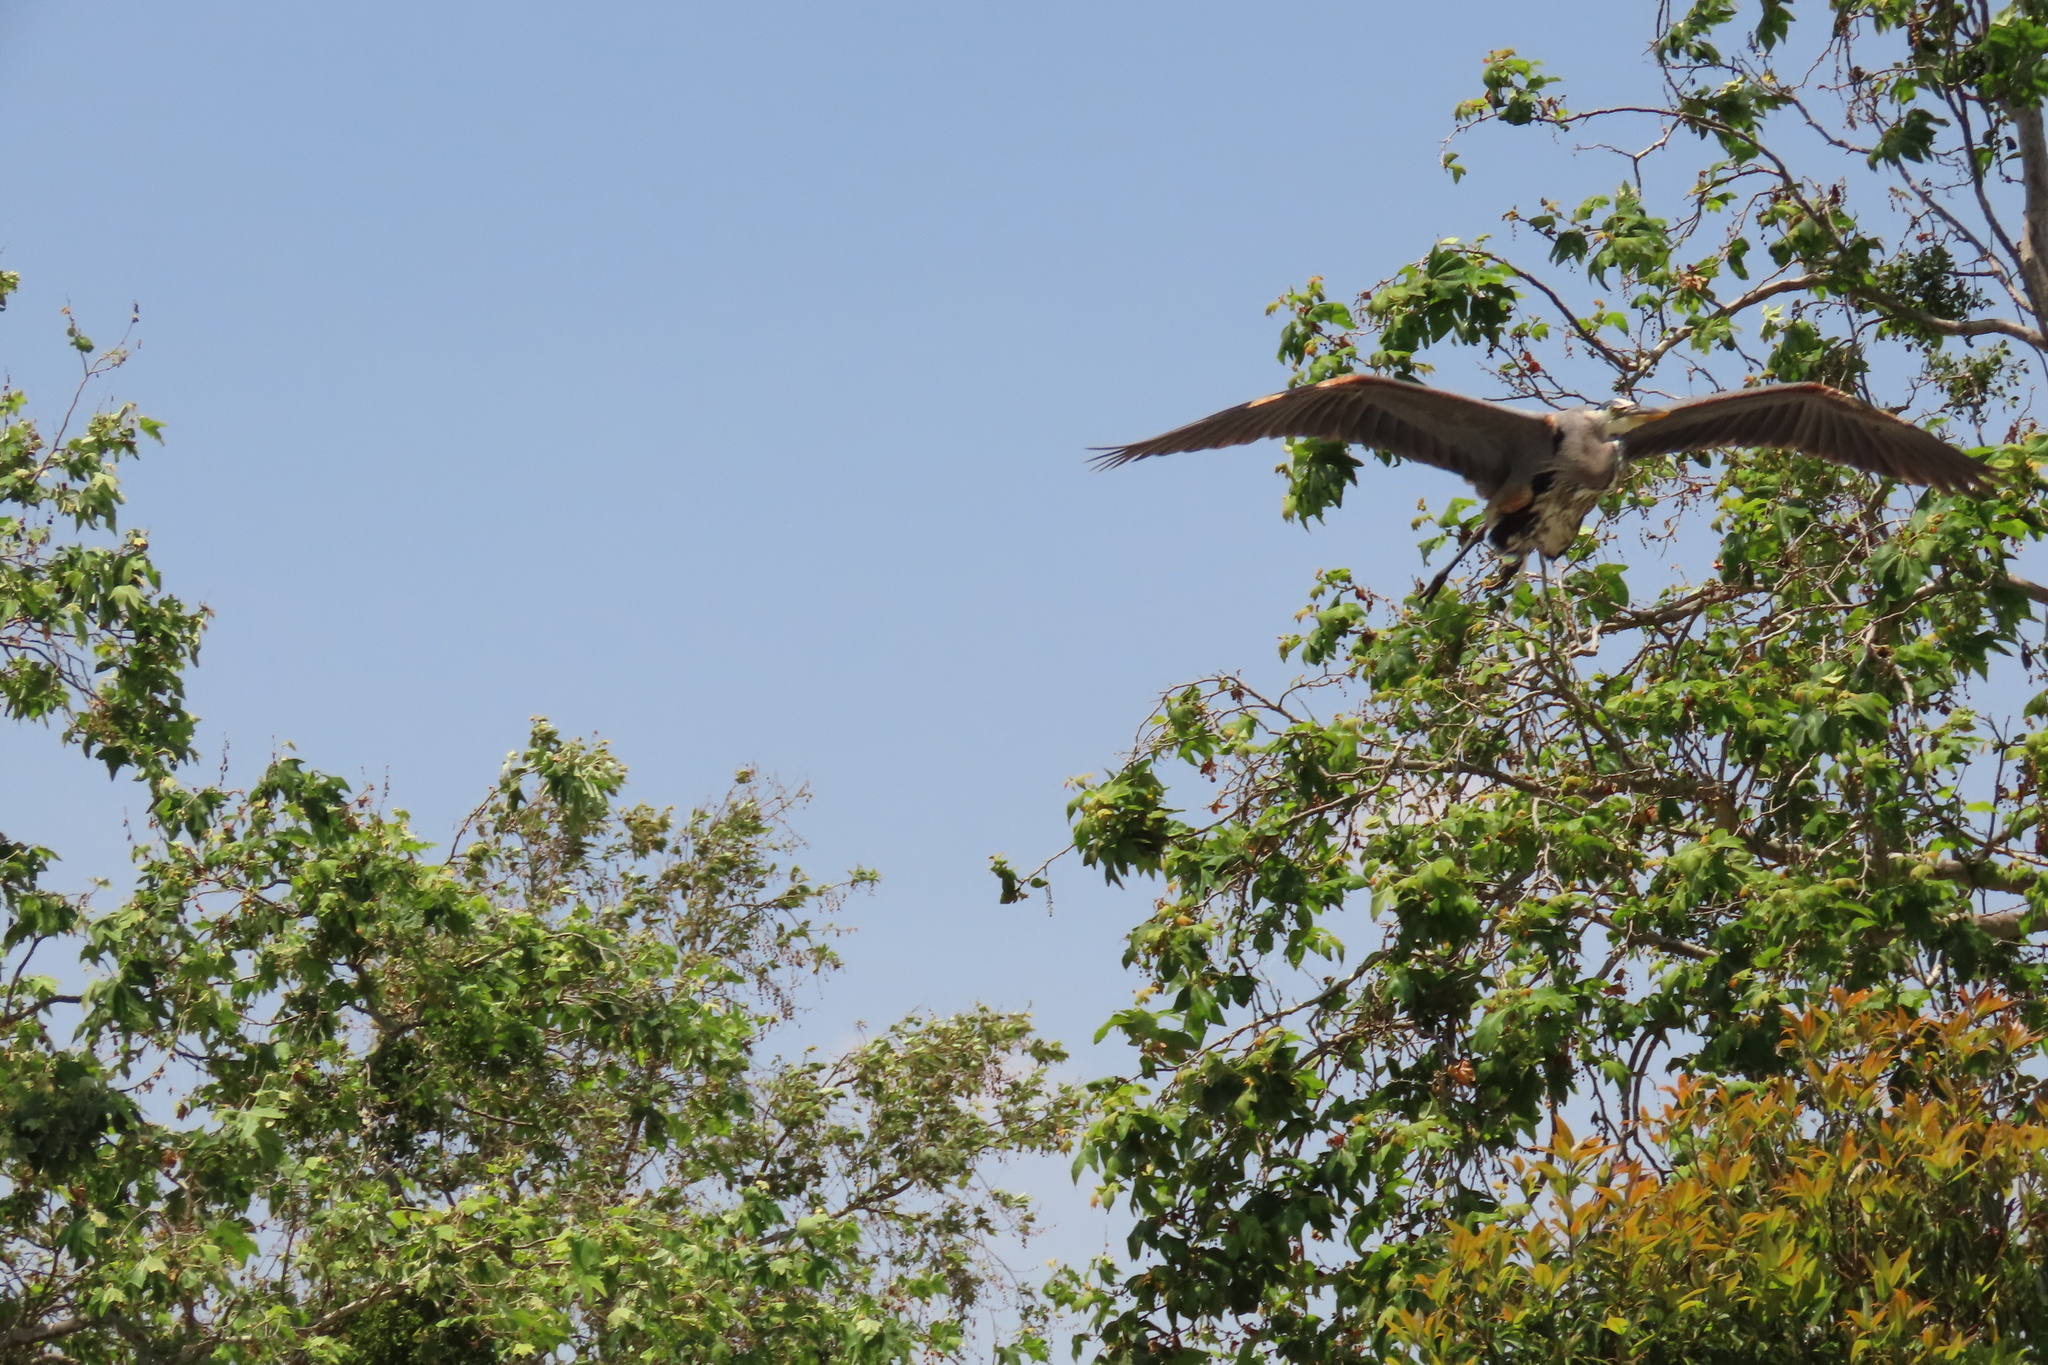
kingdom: Animalia
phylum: Chordata
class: Aves
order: Pelecaniformes
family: Ardeidae
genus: Ardea
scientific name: Ardea herodias
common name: Great blue heron
